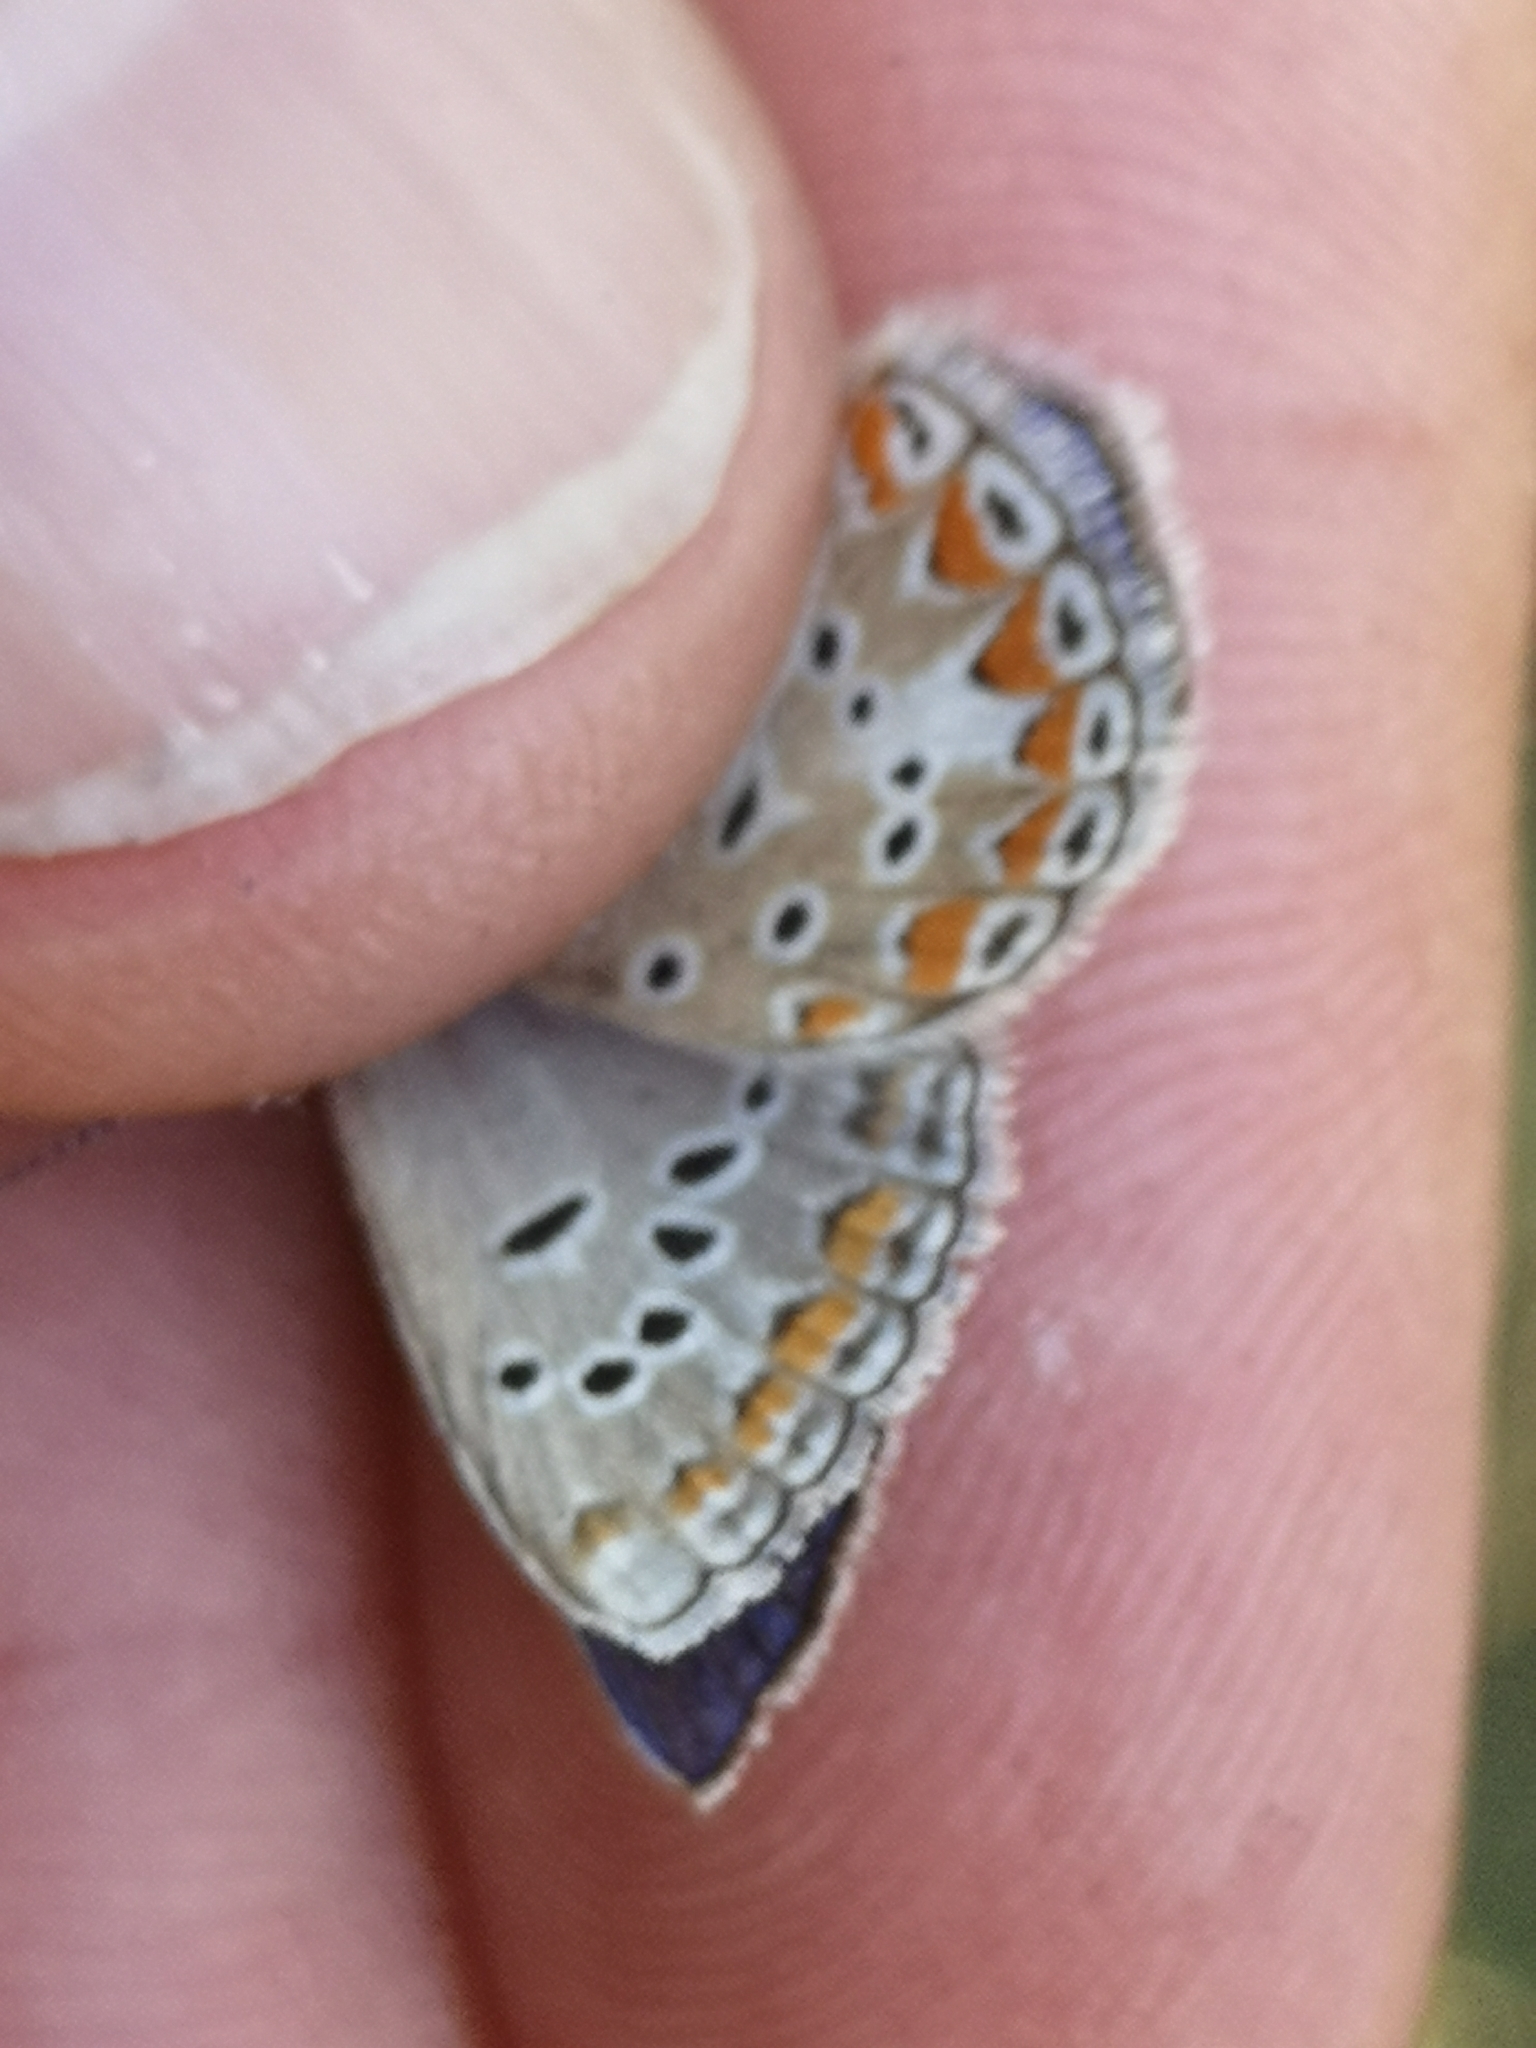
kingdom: Animalia
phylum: Arthropoda
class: Insecta
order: Lepidoptera
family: Lycaenidae
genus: Polyommatus
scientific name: Polyommatus thersites
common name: Chapman's blue
